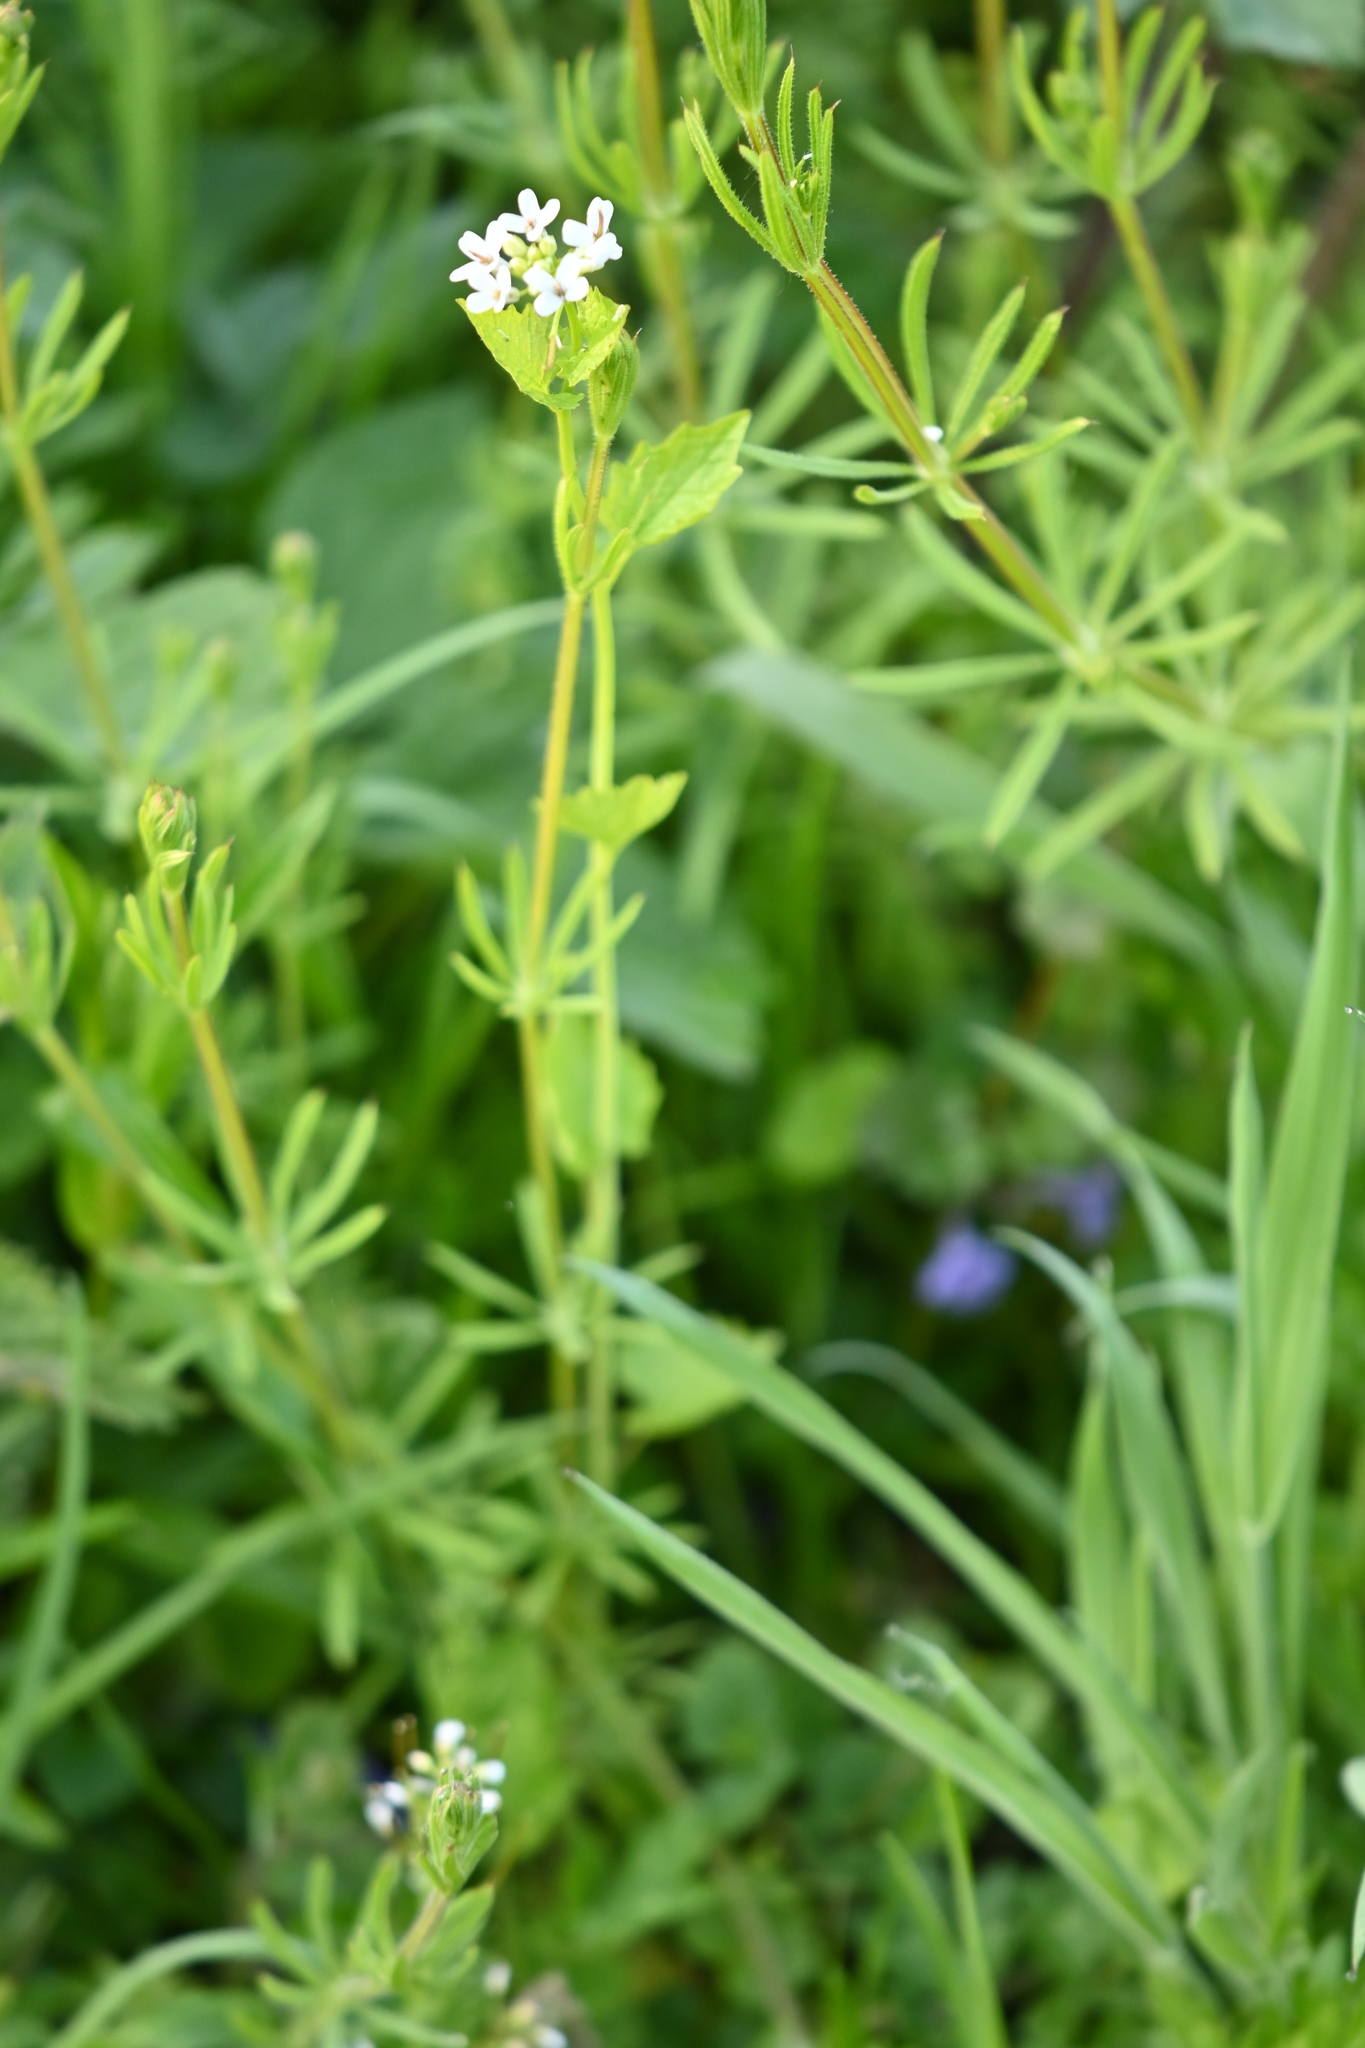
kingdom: Plantae
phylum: Tracheophyta
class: Magnoliopsida
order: Brassicales
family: Brassicaceae
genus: Alliaria
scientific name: Alliaria petiolata
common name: Garlic mustard
